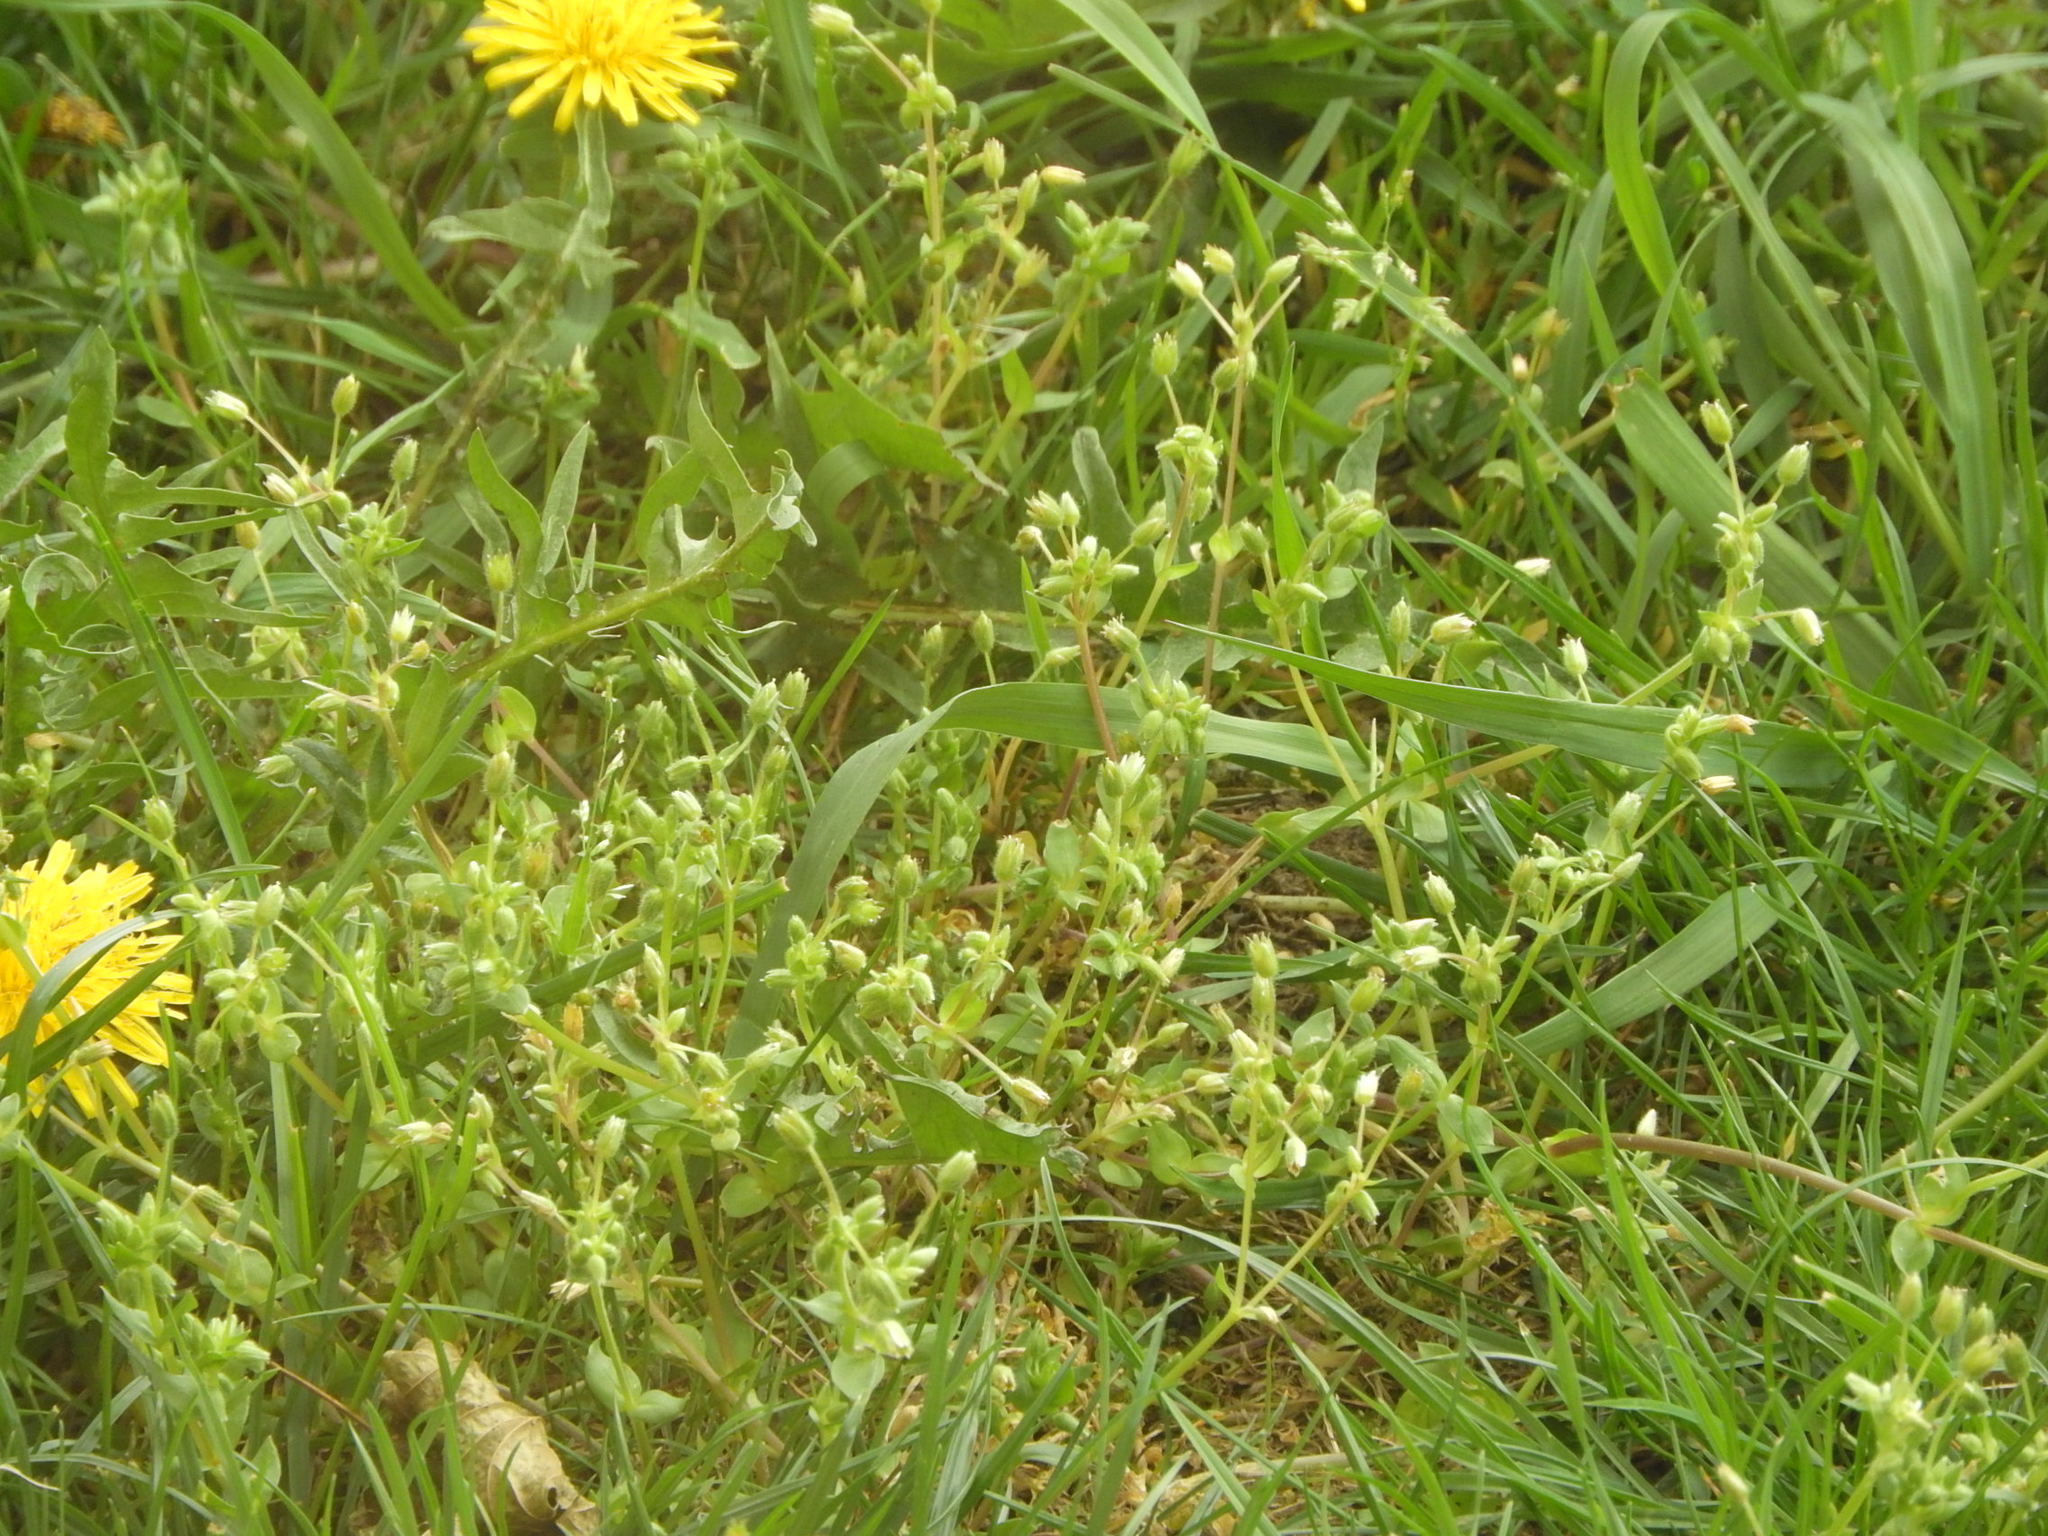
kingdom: Plantae
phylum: Tracheophyta
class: Magnoliopsida
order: Caryophyllales
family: Caryophyllaceae
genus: Stellaria
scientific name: Stellaria media
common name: Common chickweed
